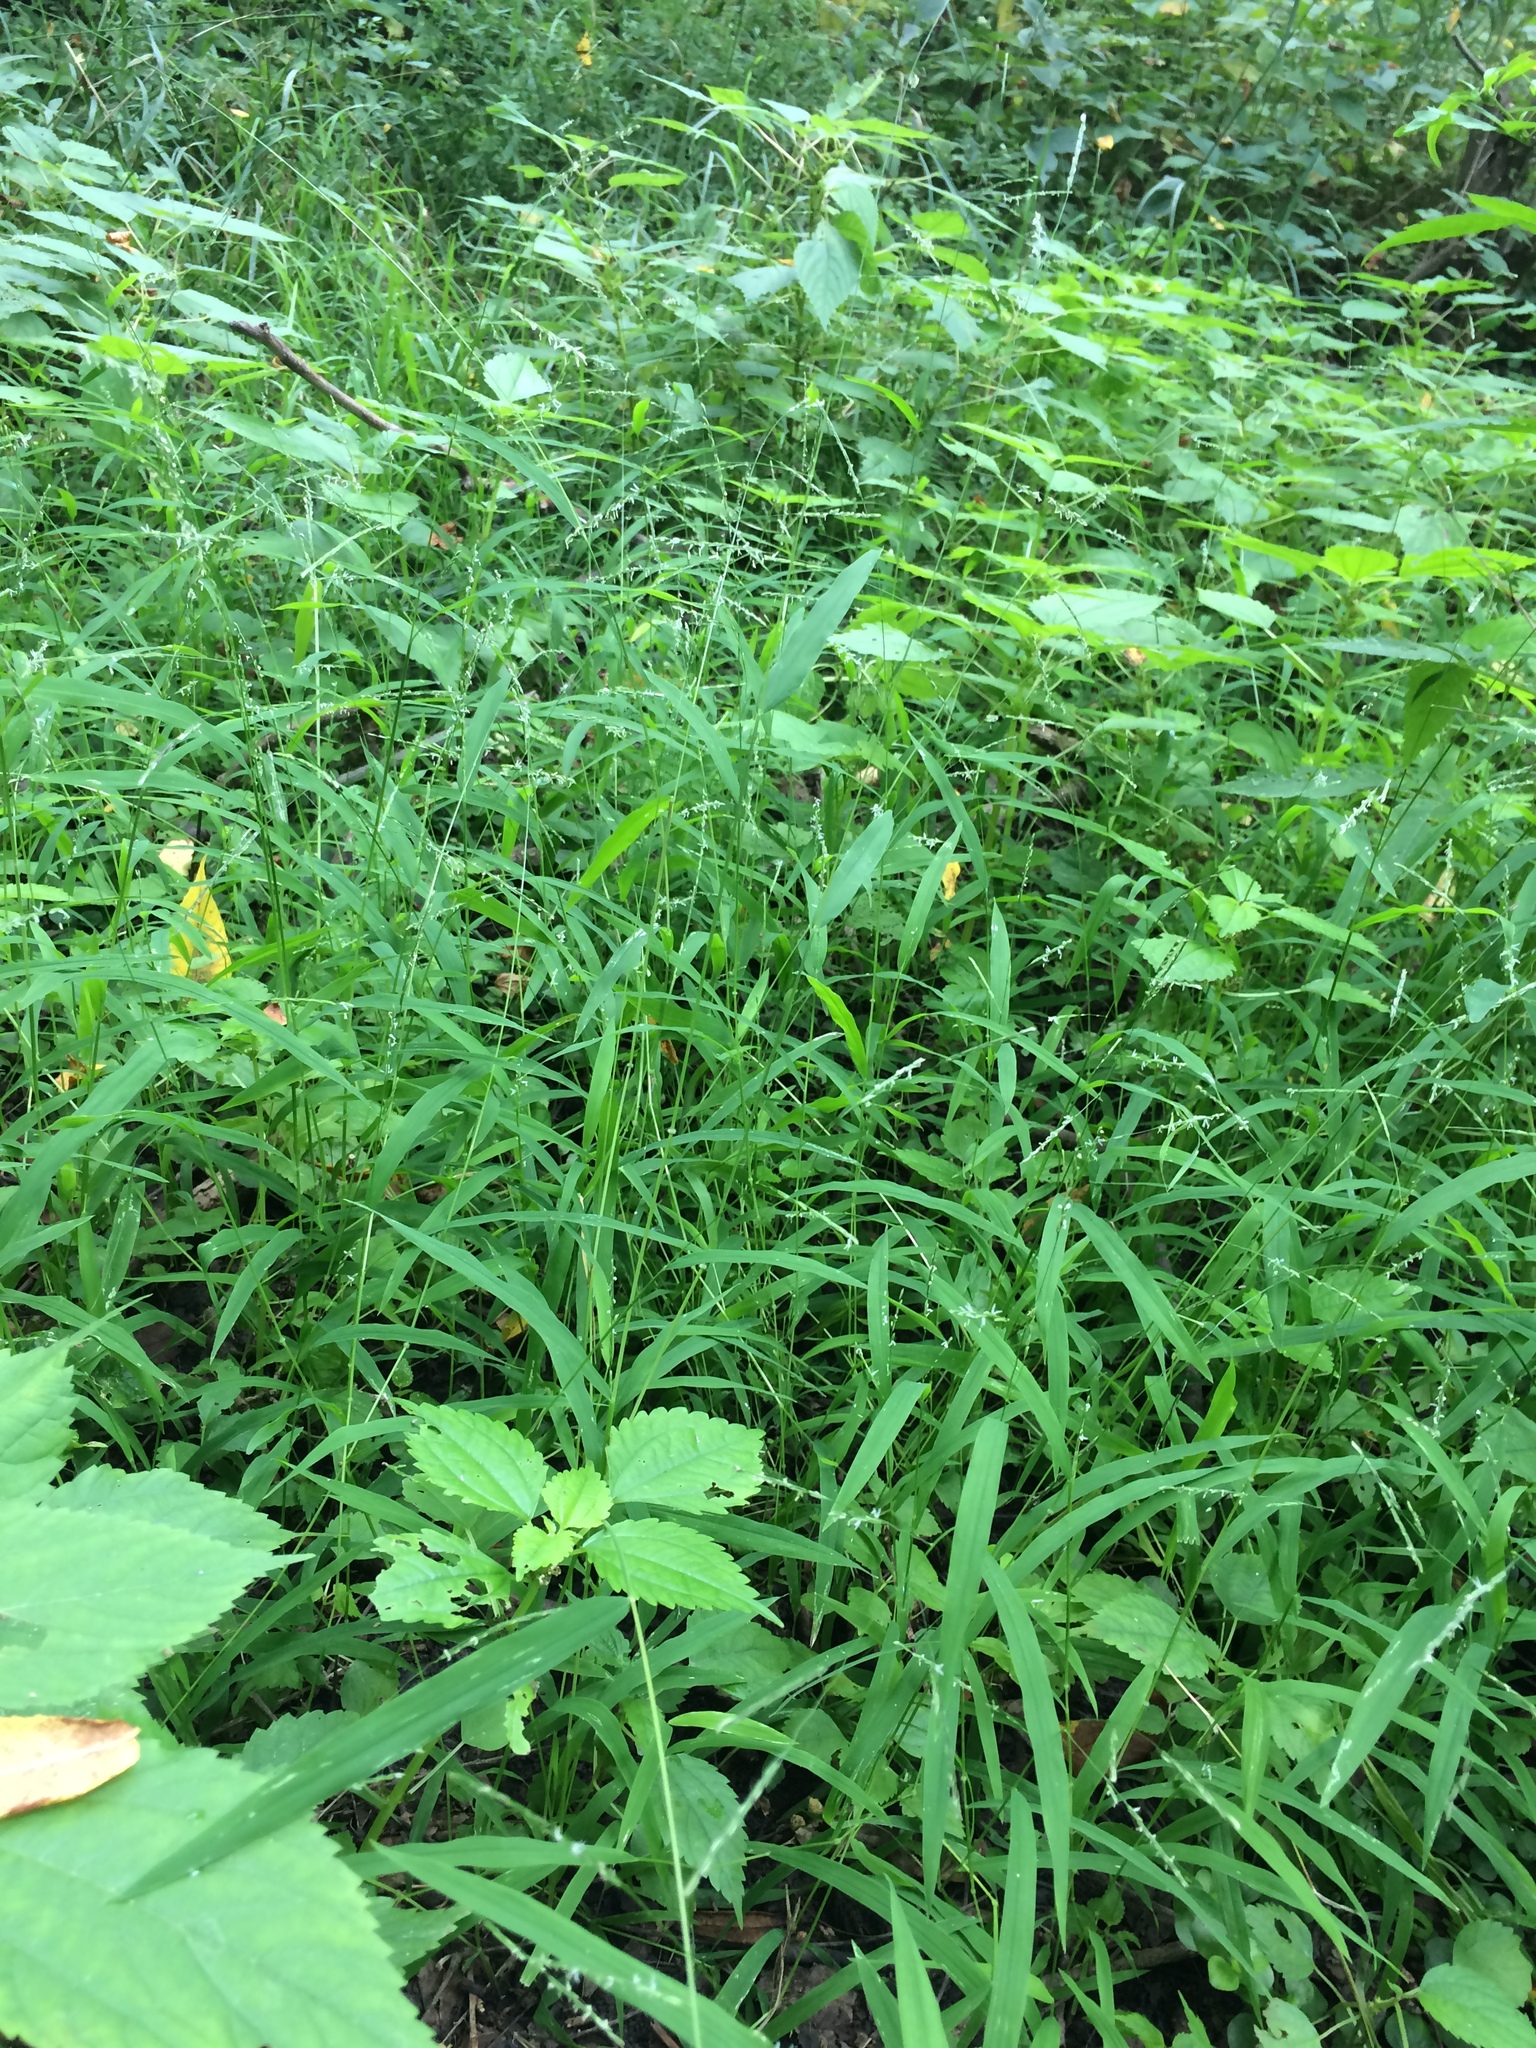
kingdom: Plantae
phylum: Tracheophyta
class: Liliopsida
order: Poales
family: Poaceae
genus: Leersia
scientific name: Leersia oryzoides
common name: Cut-grass
